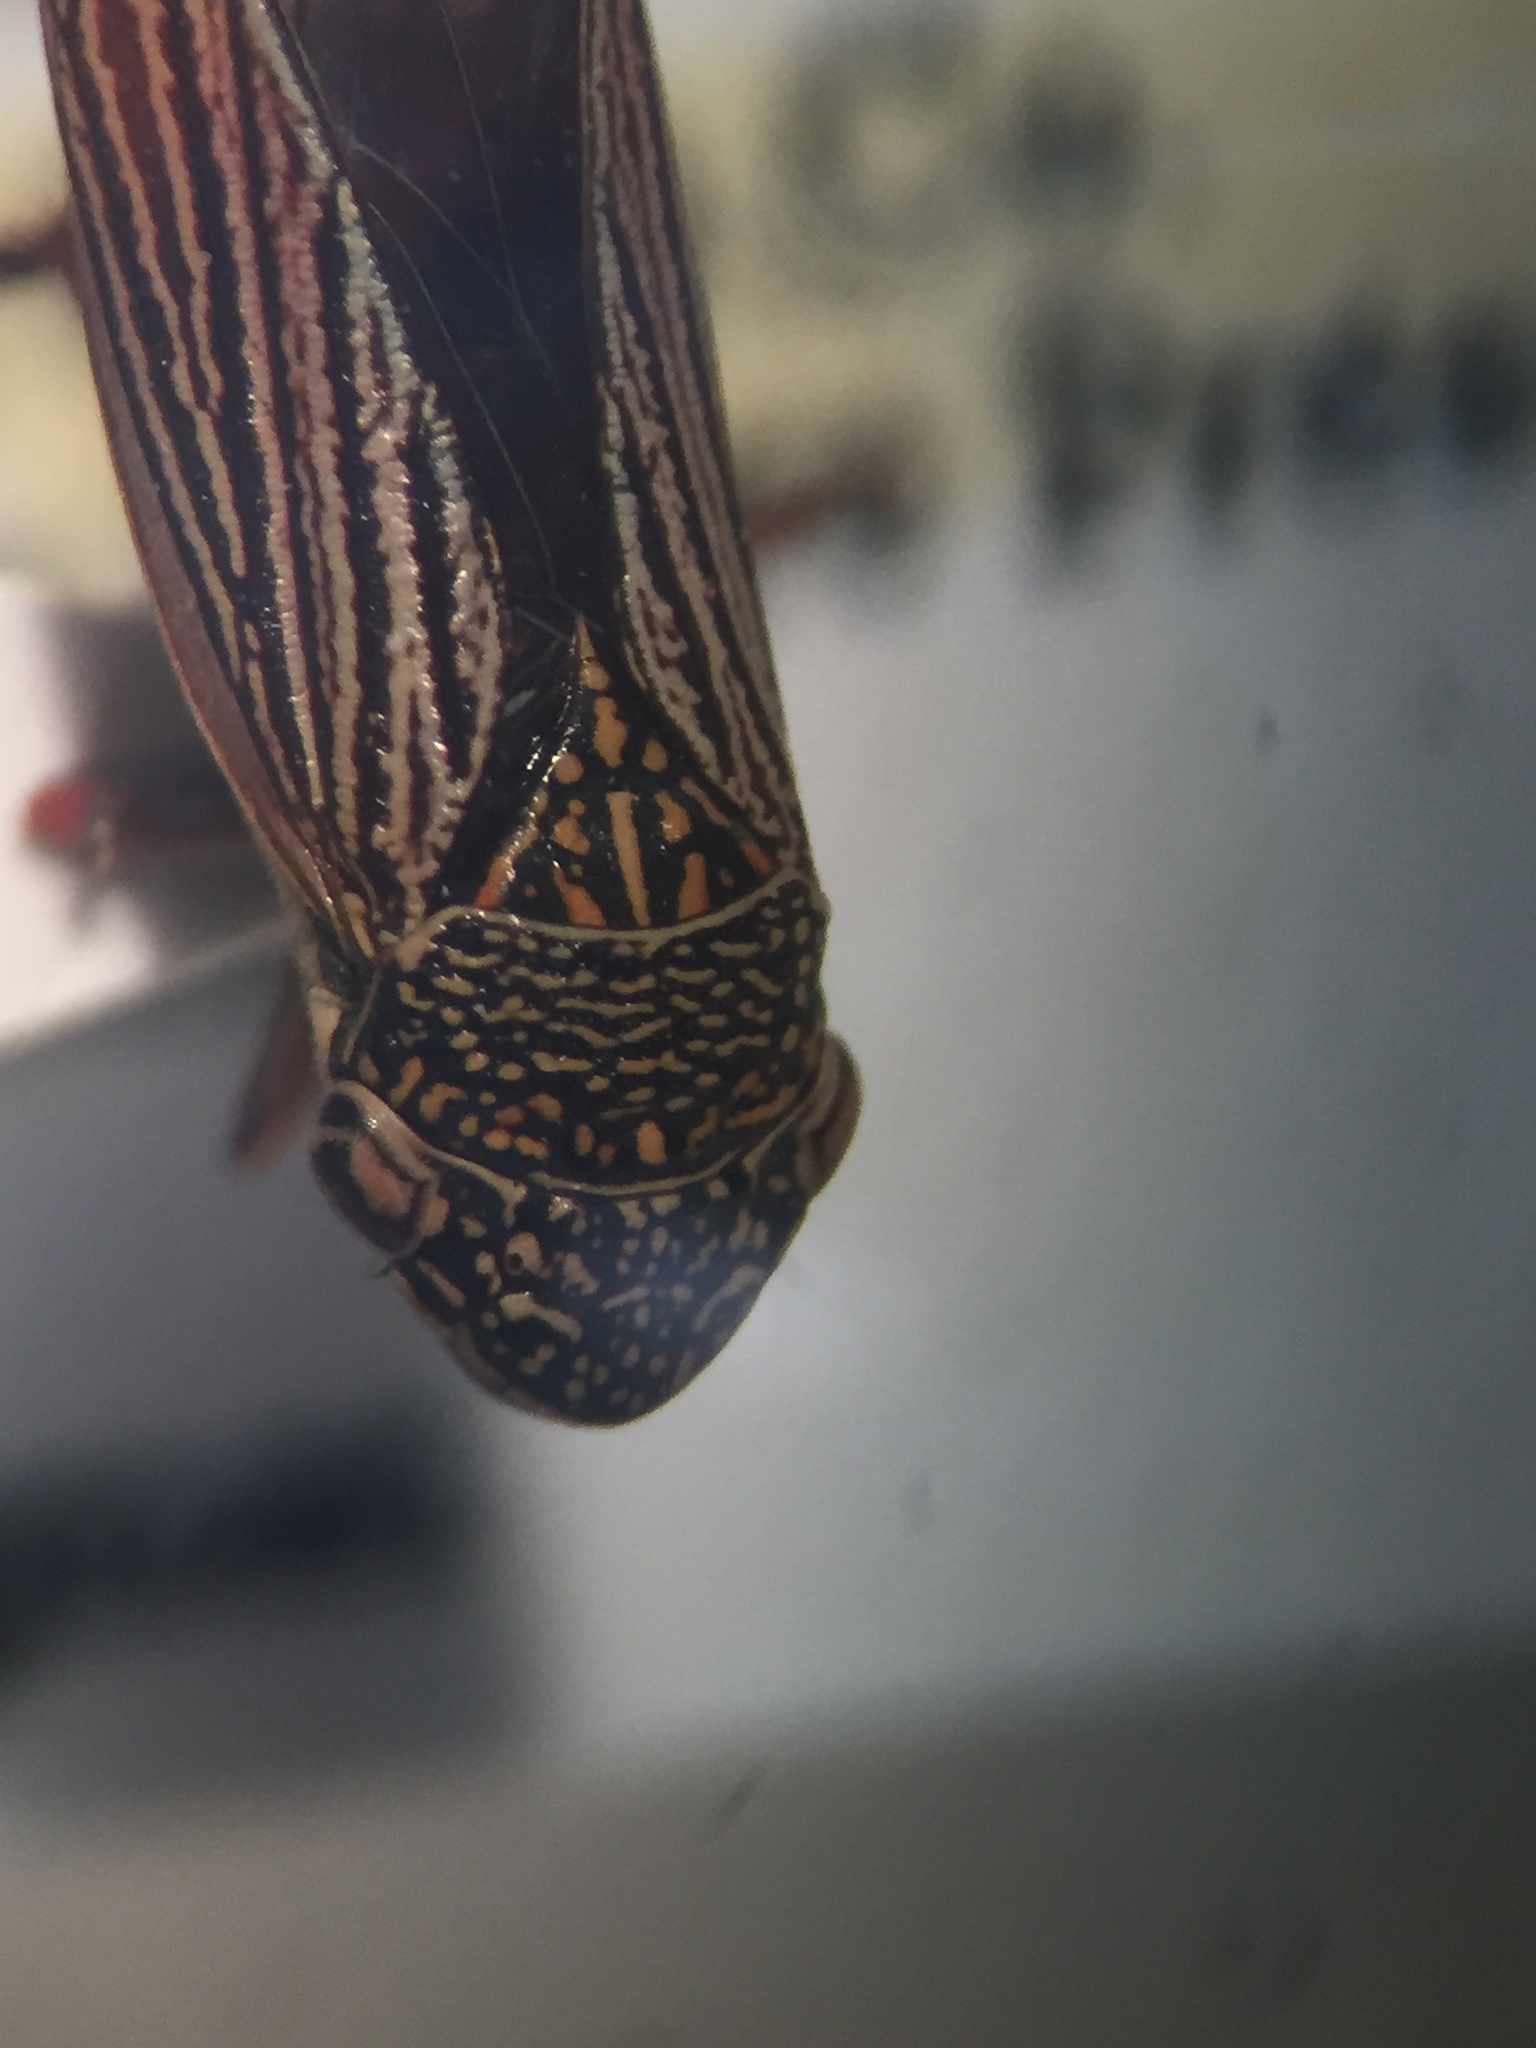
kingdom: Animalia
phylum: Arthropoda
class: Insecta
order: Hemiptera
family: Cicadellidae
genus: Cuerna
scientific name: Cuerna costalis
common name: Lateral-lined sharpshooter
